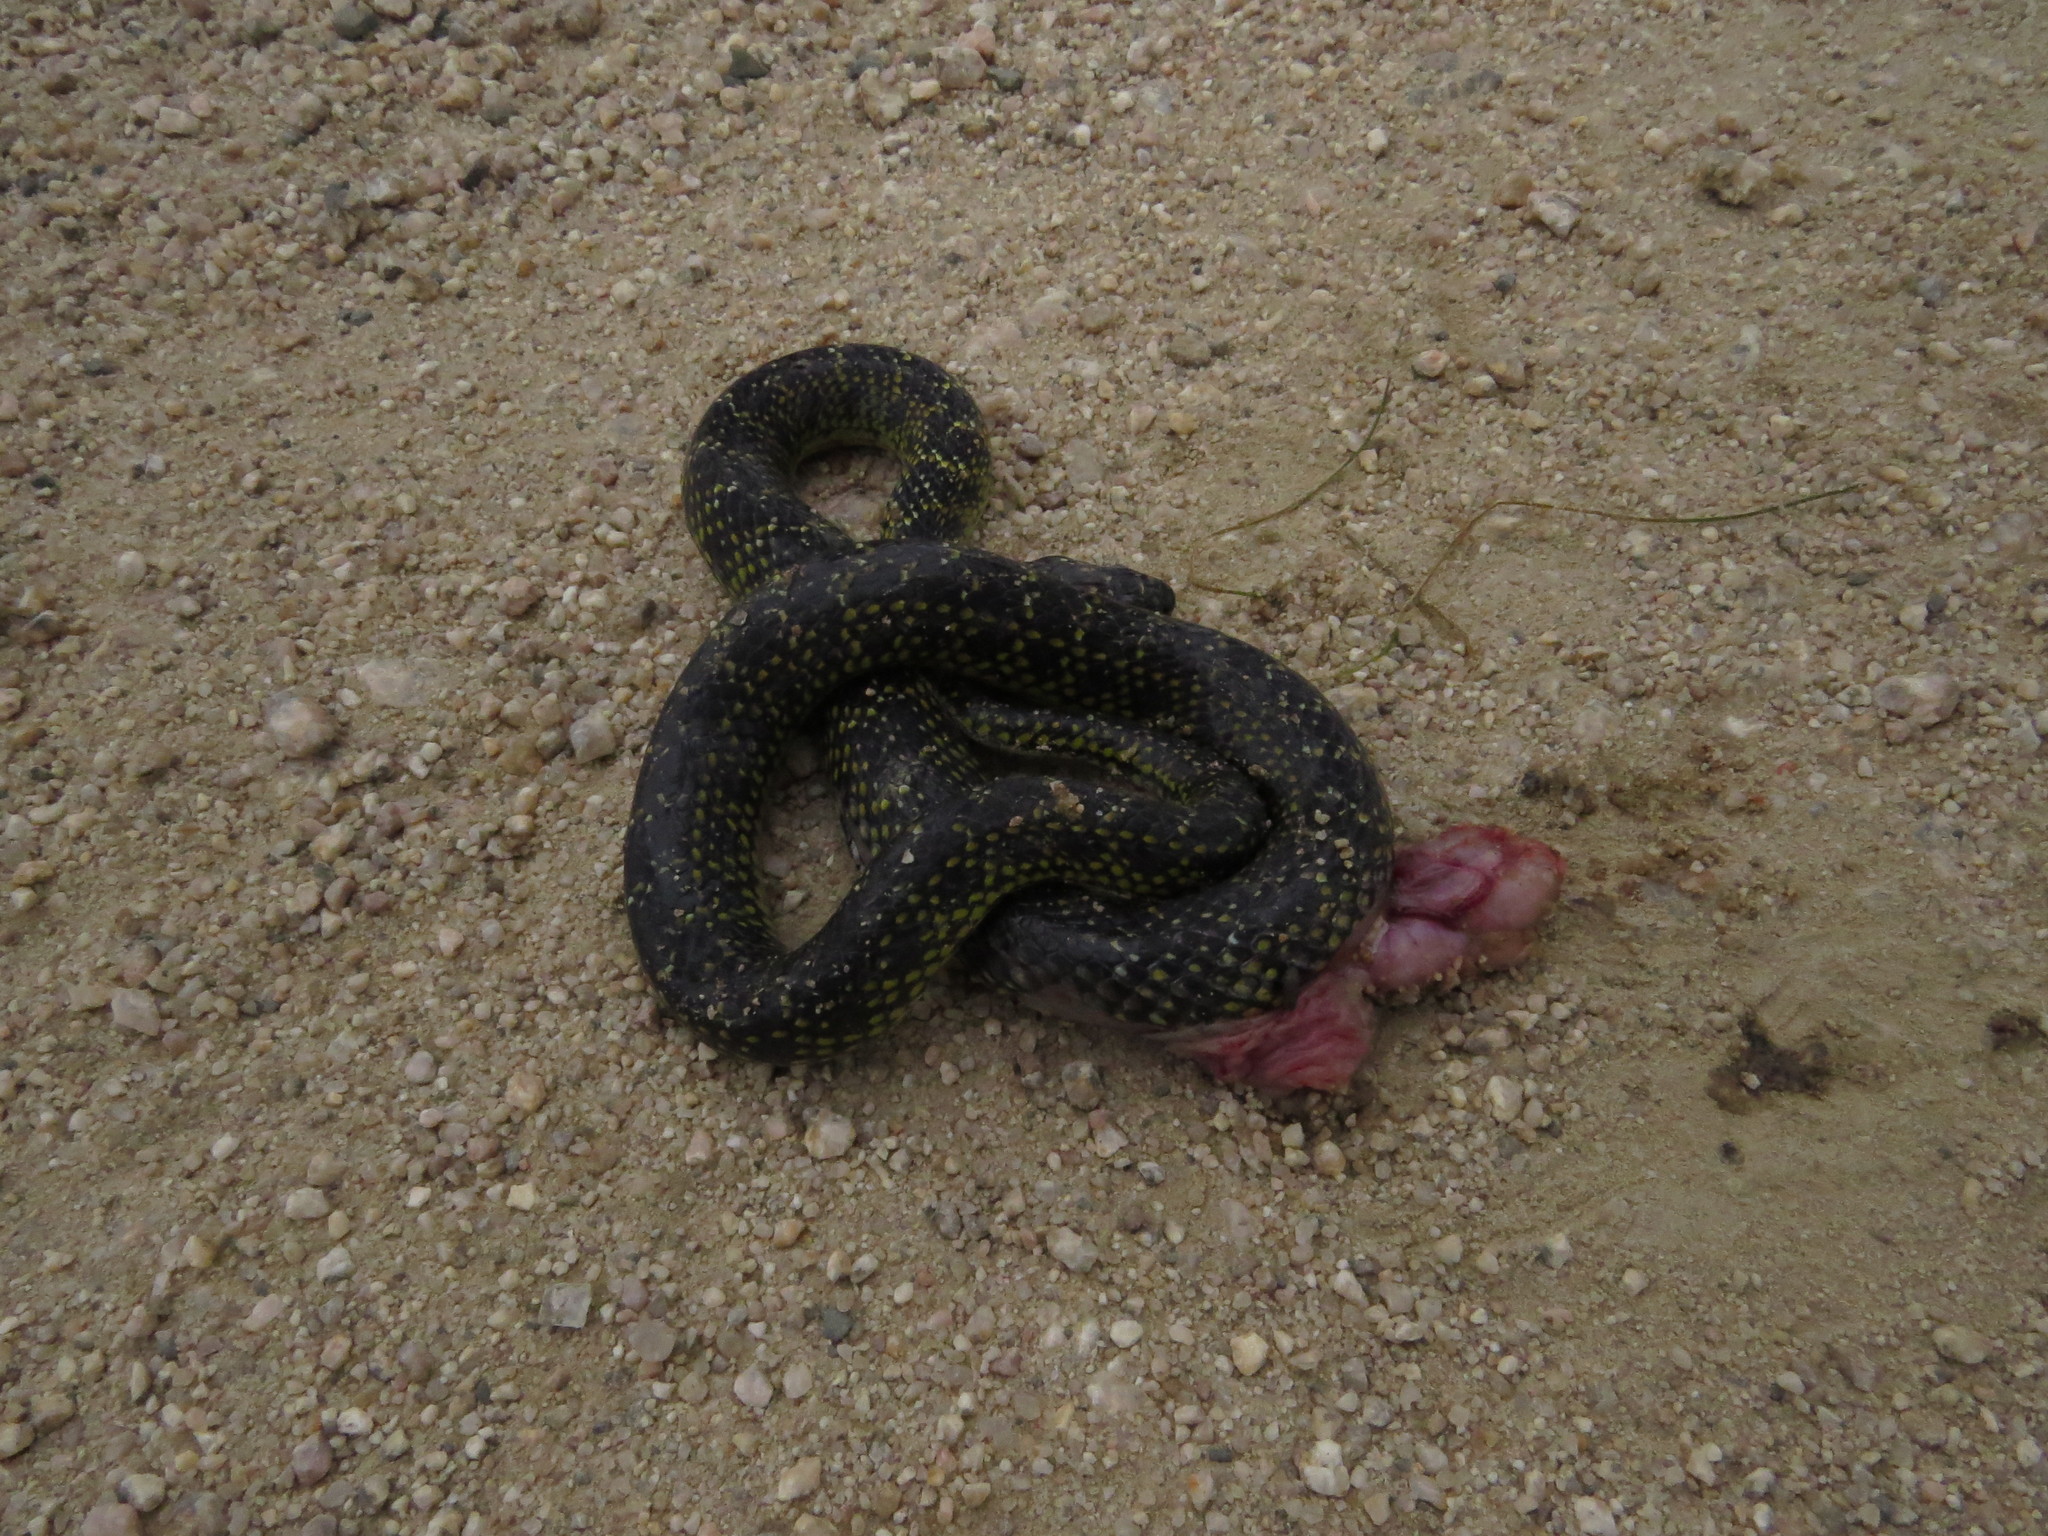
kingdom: Animalia
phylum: Chordata
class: Squamata
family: Colubridae
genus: Erythrolamprus
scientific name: Erythrolamprus poecilogyrus
